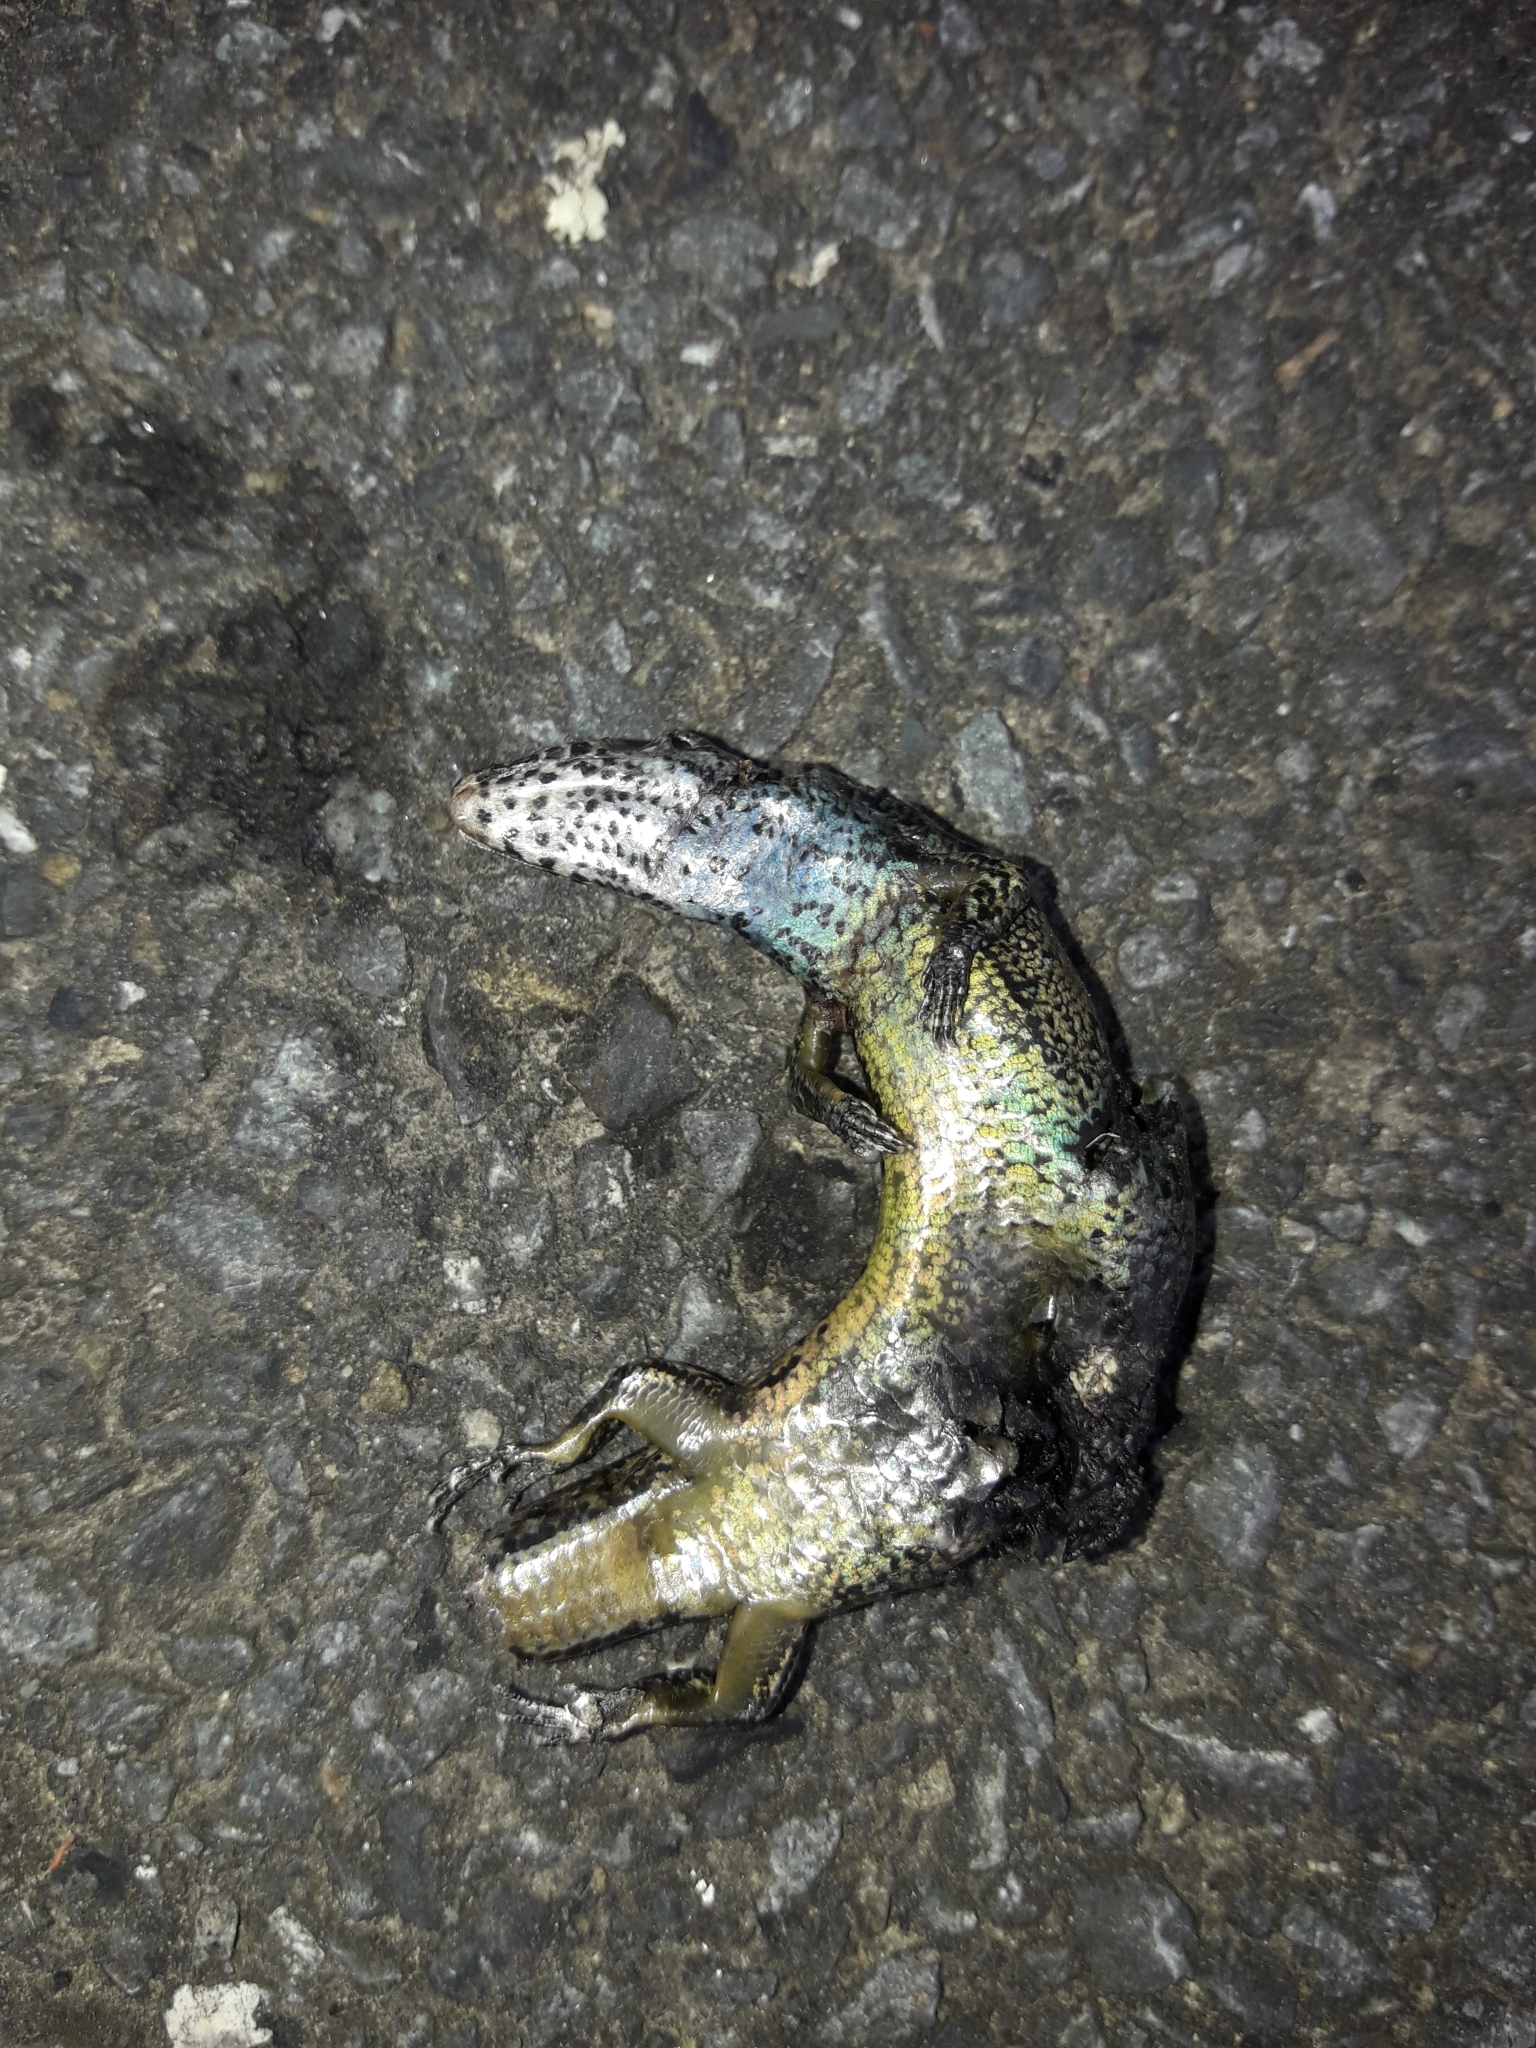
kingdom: Animalia
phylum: Chordata
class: Squamata
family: Scincidae
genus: Oligosoma
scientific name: Oligosoma aeneum
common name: Copper skink
